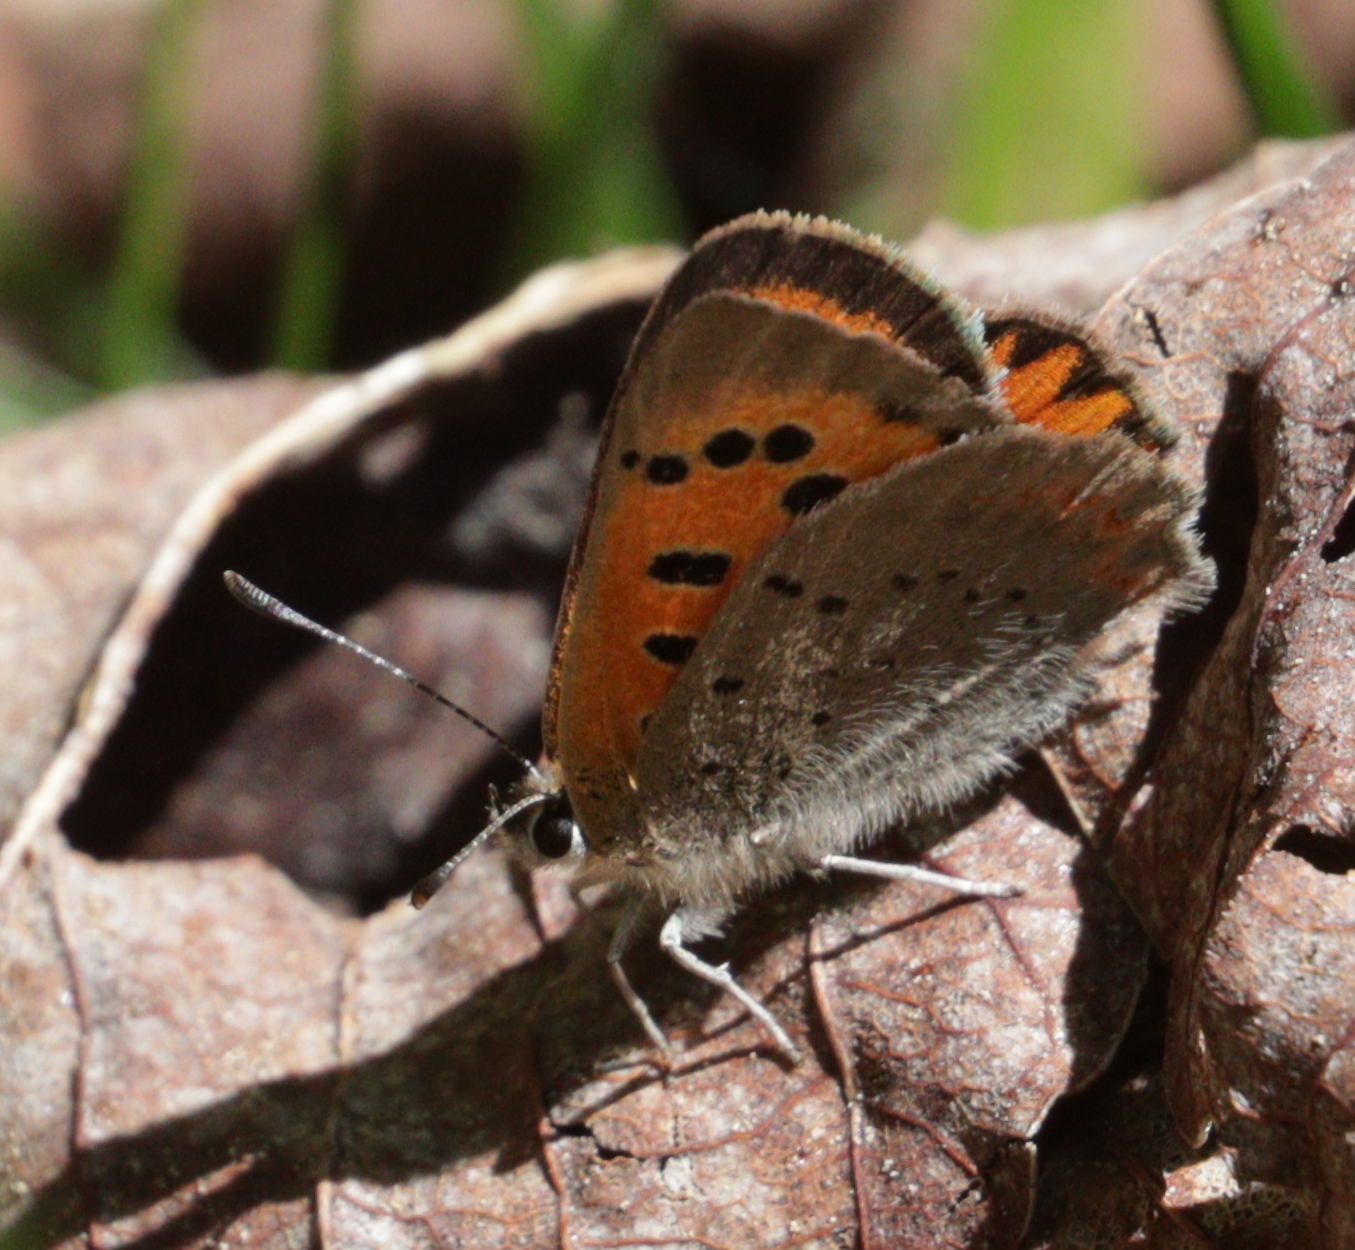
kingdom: Animalia
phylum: Arthropoda
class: Insecta
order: Lepidoptera
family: Lycaenidae
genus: Lycaena
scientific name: Lycaena phlaeas
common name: Small copper
